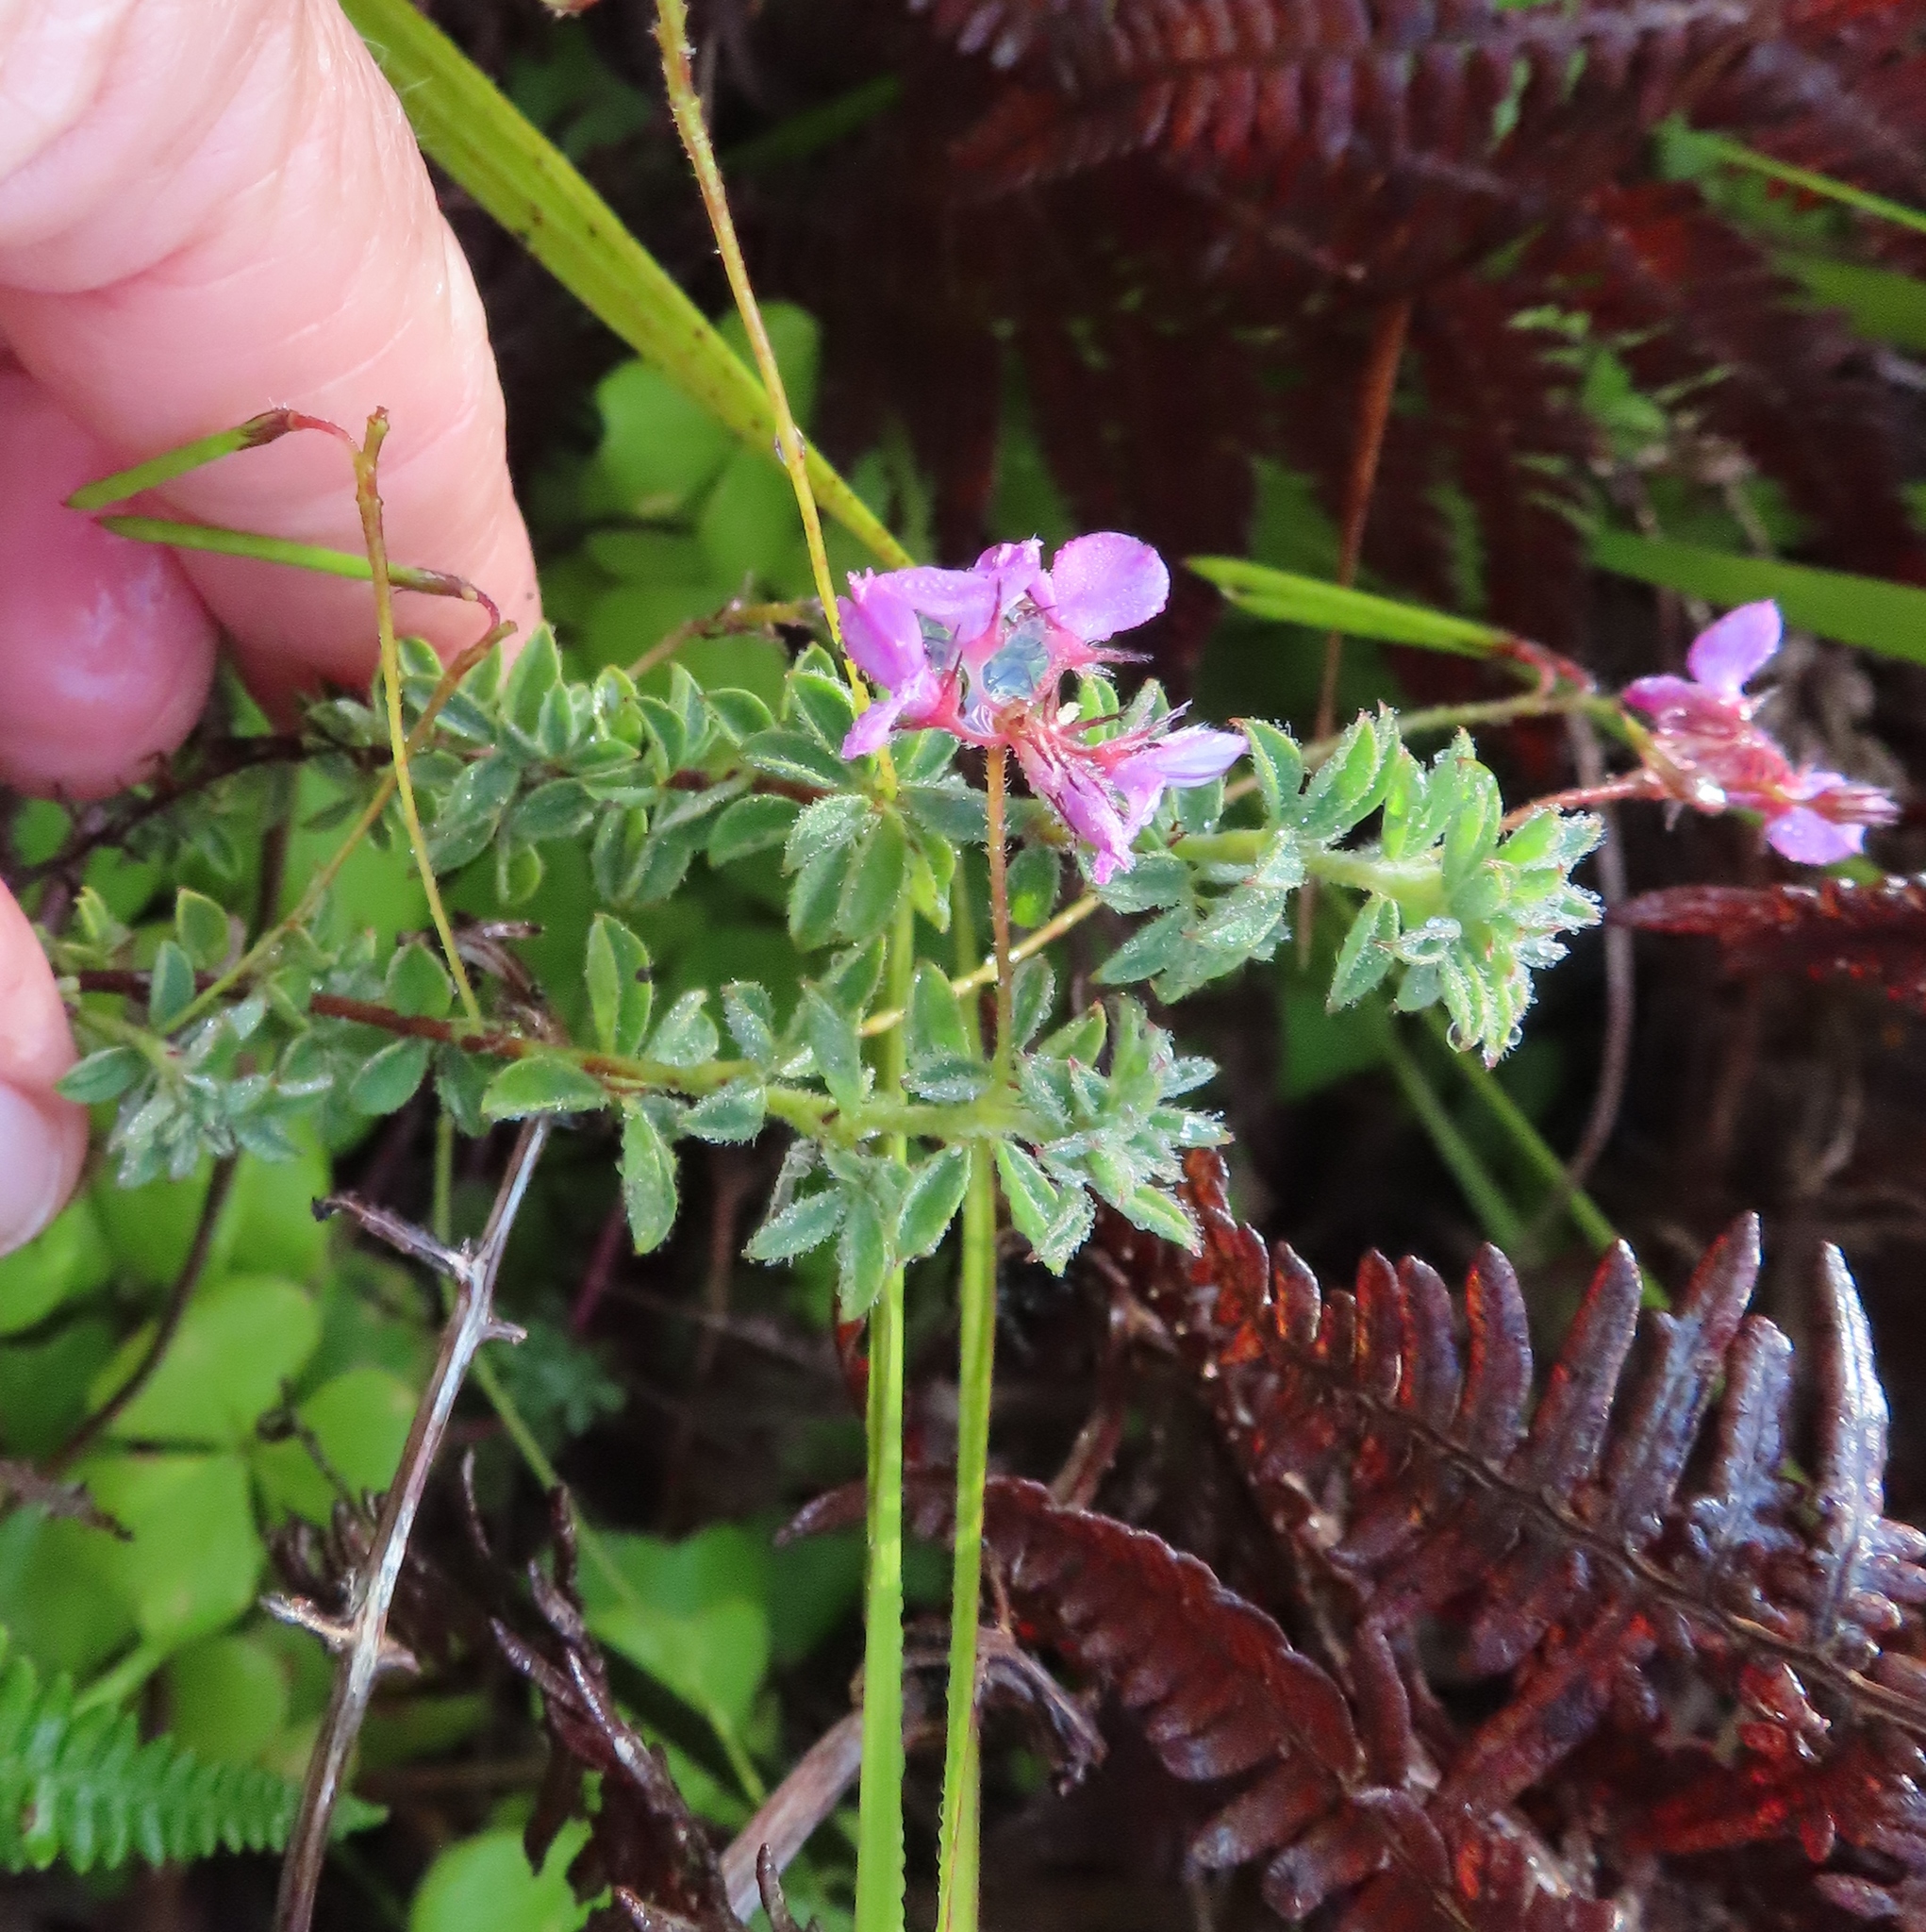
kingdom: Plantae
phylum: Tracheophyta
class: Magnoliopsida
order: Fabales
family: Fabaceae
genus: Indigofera
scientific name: Indigofera alopecuroides
